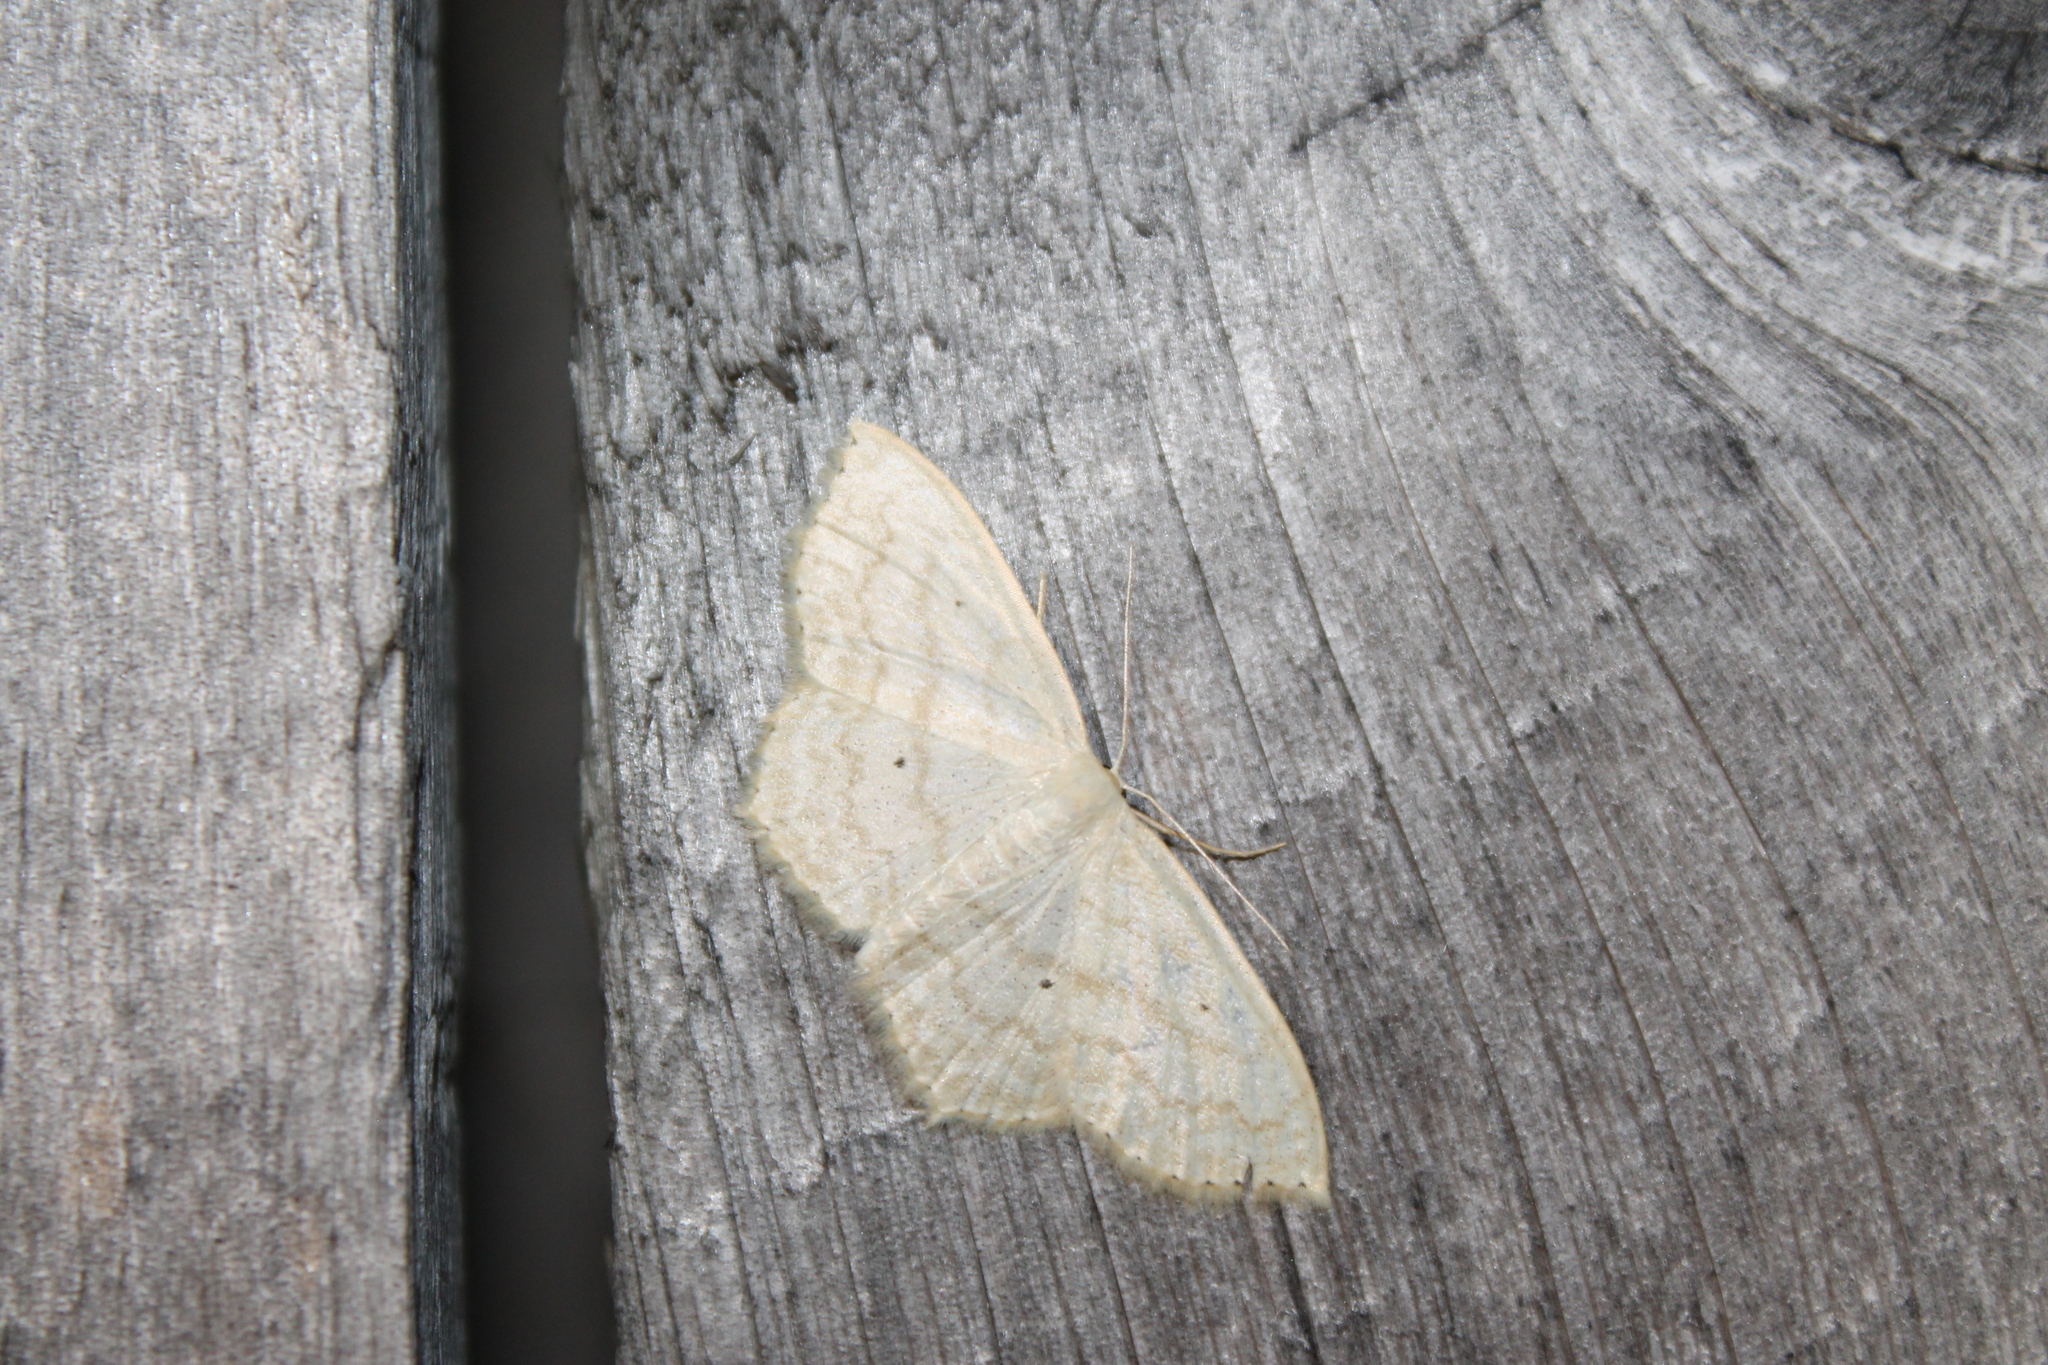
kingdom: Animalia
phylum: Arthropoda
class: Insecta
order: Lepidoptera
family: Geometridae
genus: Scopula
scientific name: Scopula limboundata
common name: Large lace border
